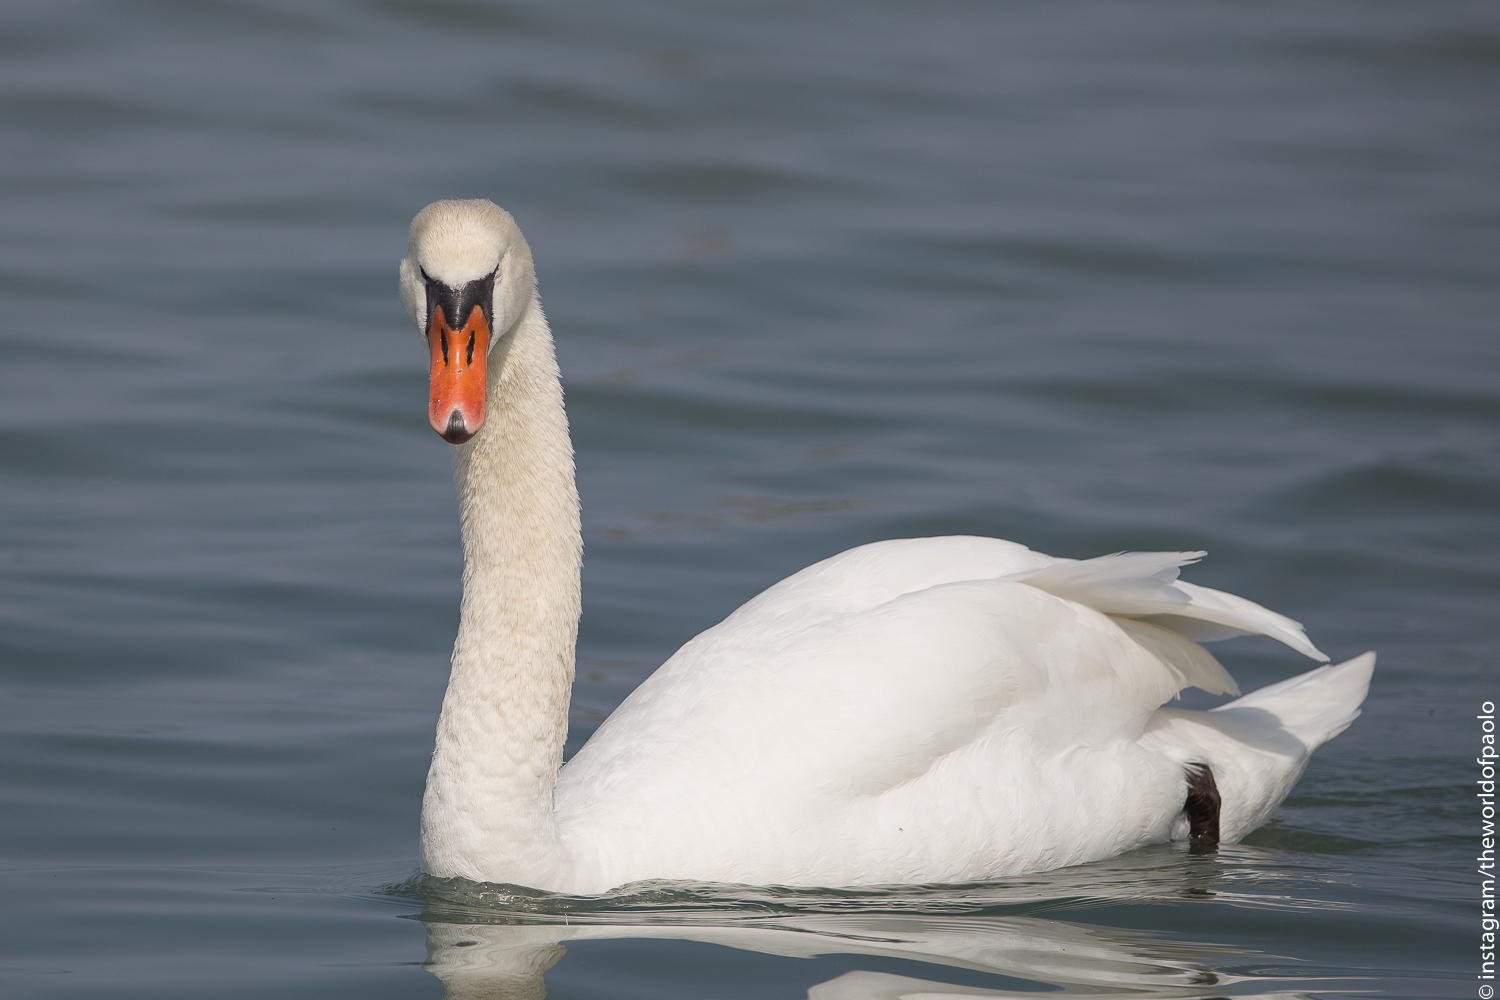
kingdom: Animalia
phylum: Chordata
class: Aves
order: Anseriformes
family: Anatidae
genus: Cygnus
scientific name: Cygnus olor
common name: Mute swan
